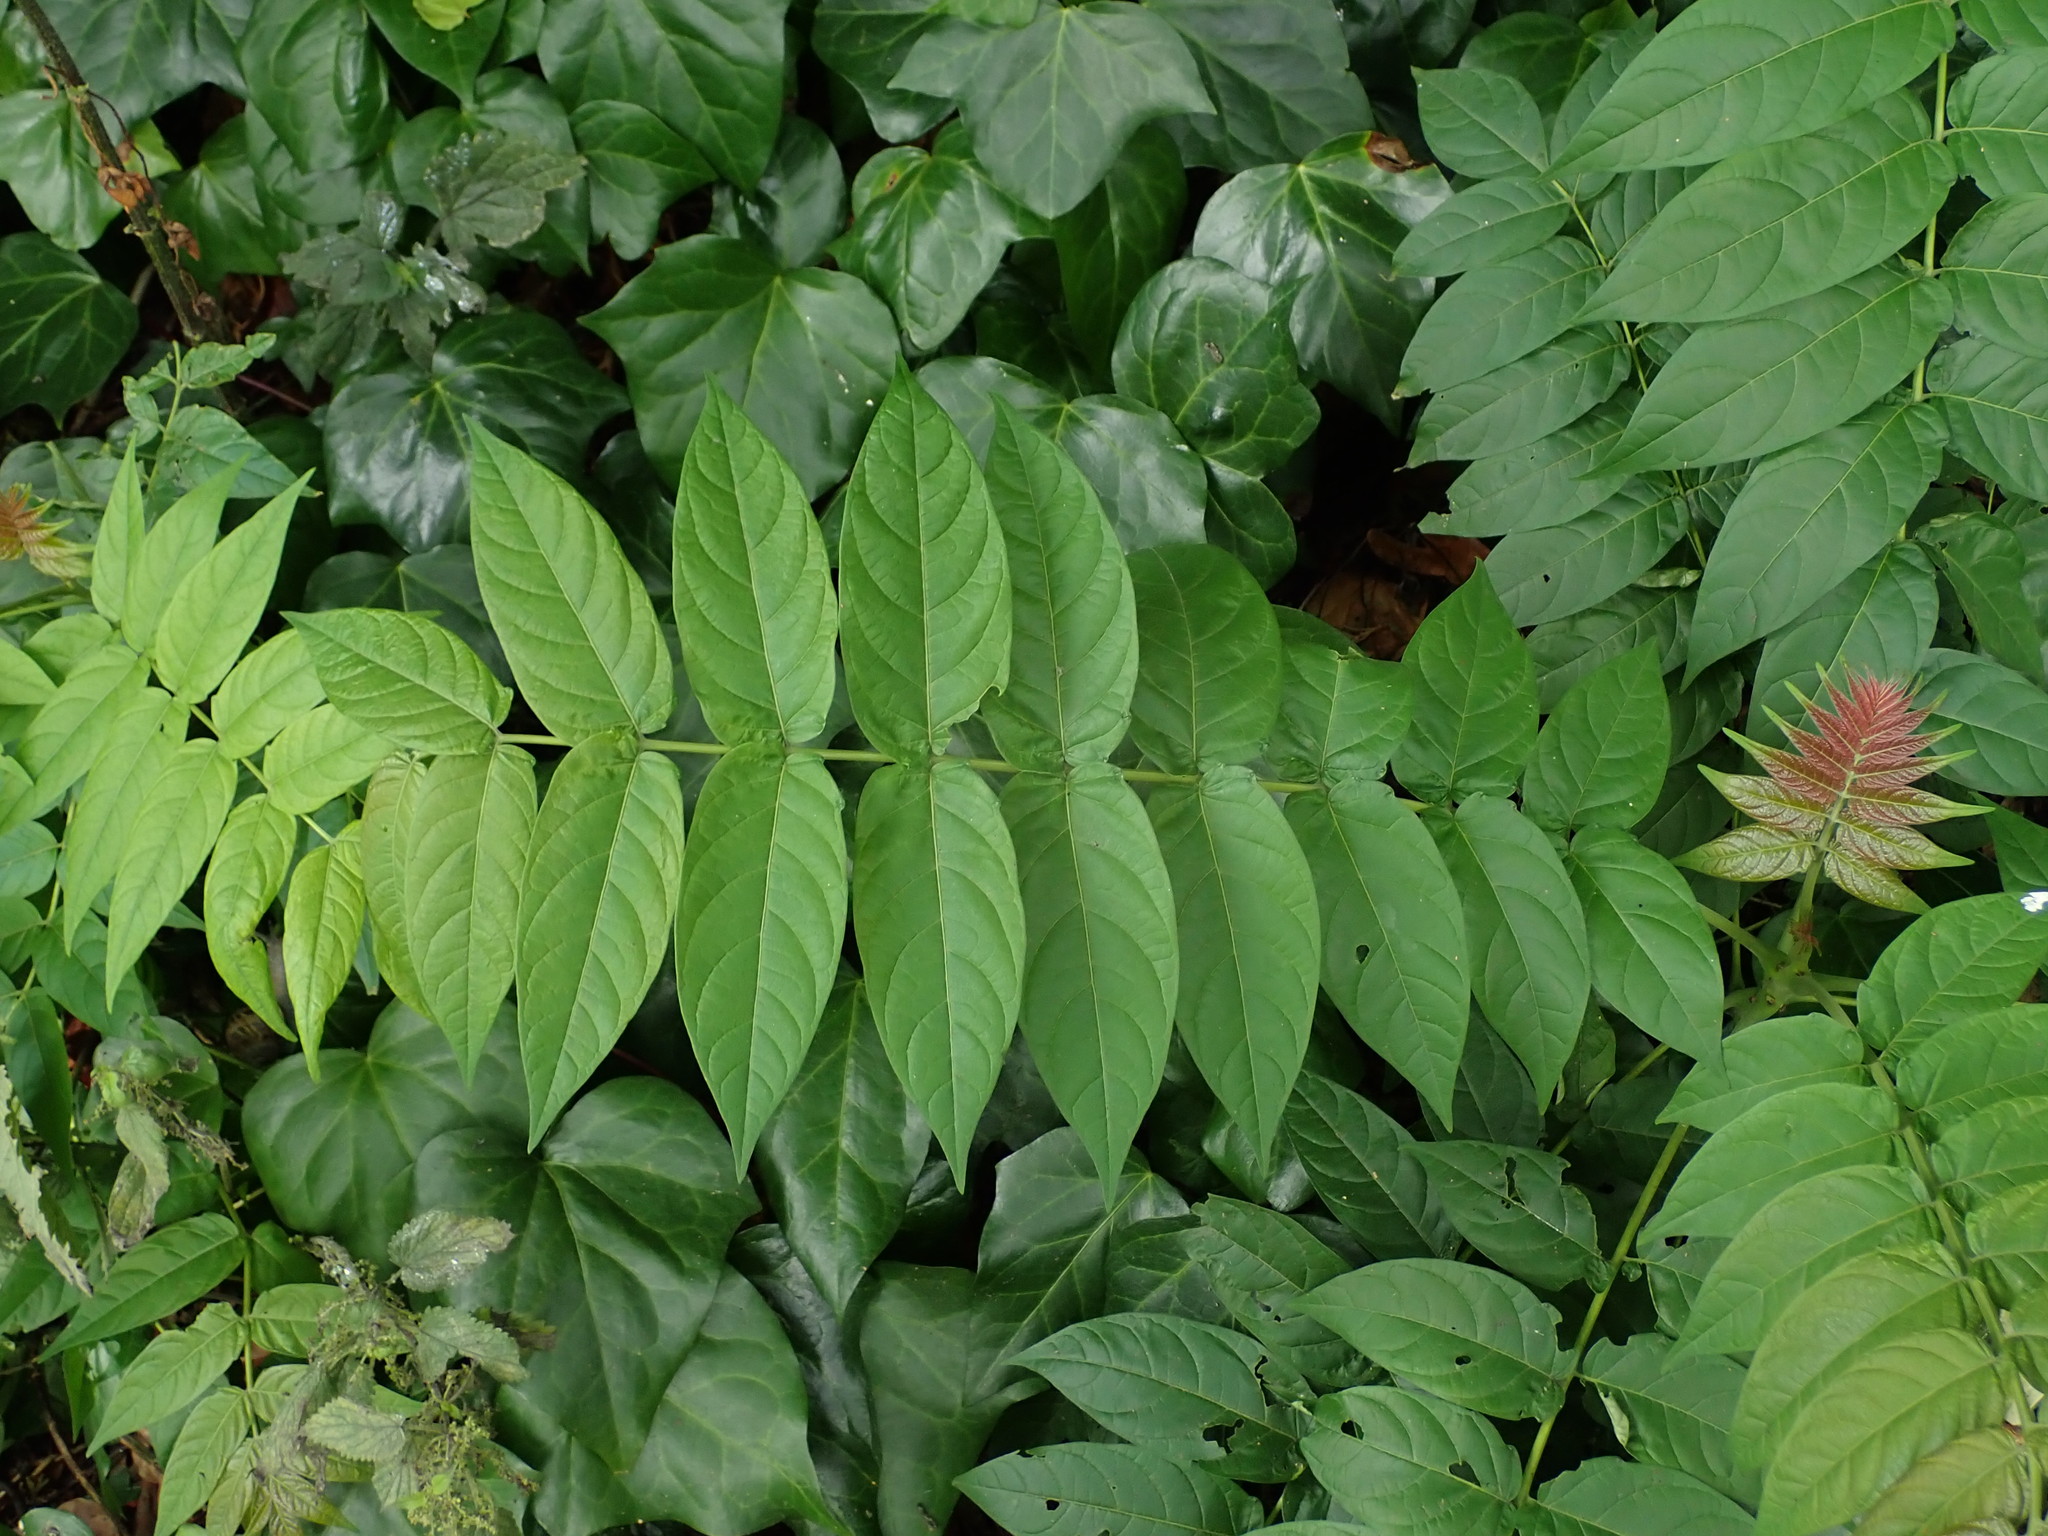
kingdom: Plantae
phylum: Tracheophyta
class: Magnoliopsida
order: Sapindales
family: Simaroubaceae
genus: Ailanthus
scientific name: Ailanthus altissima
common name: Tree-of-heaven
